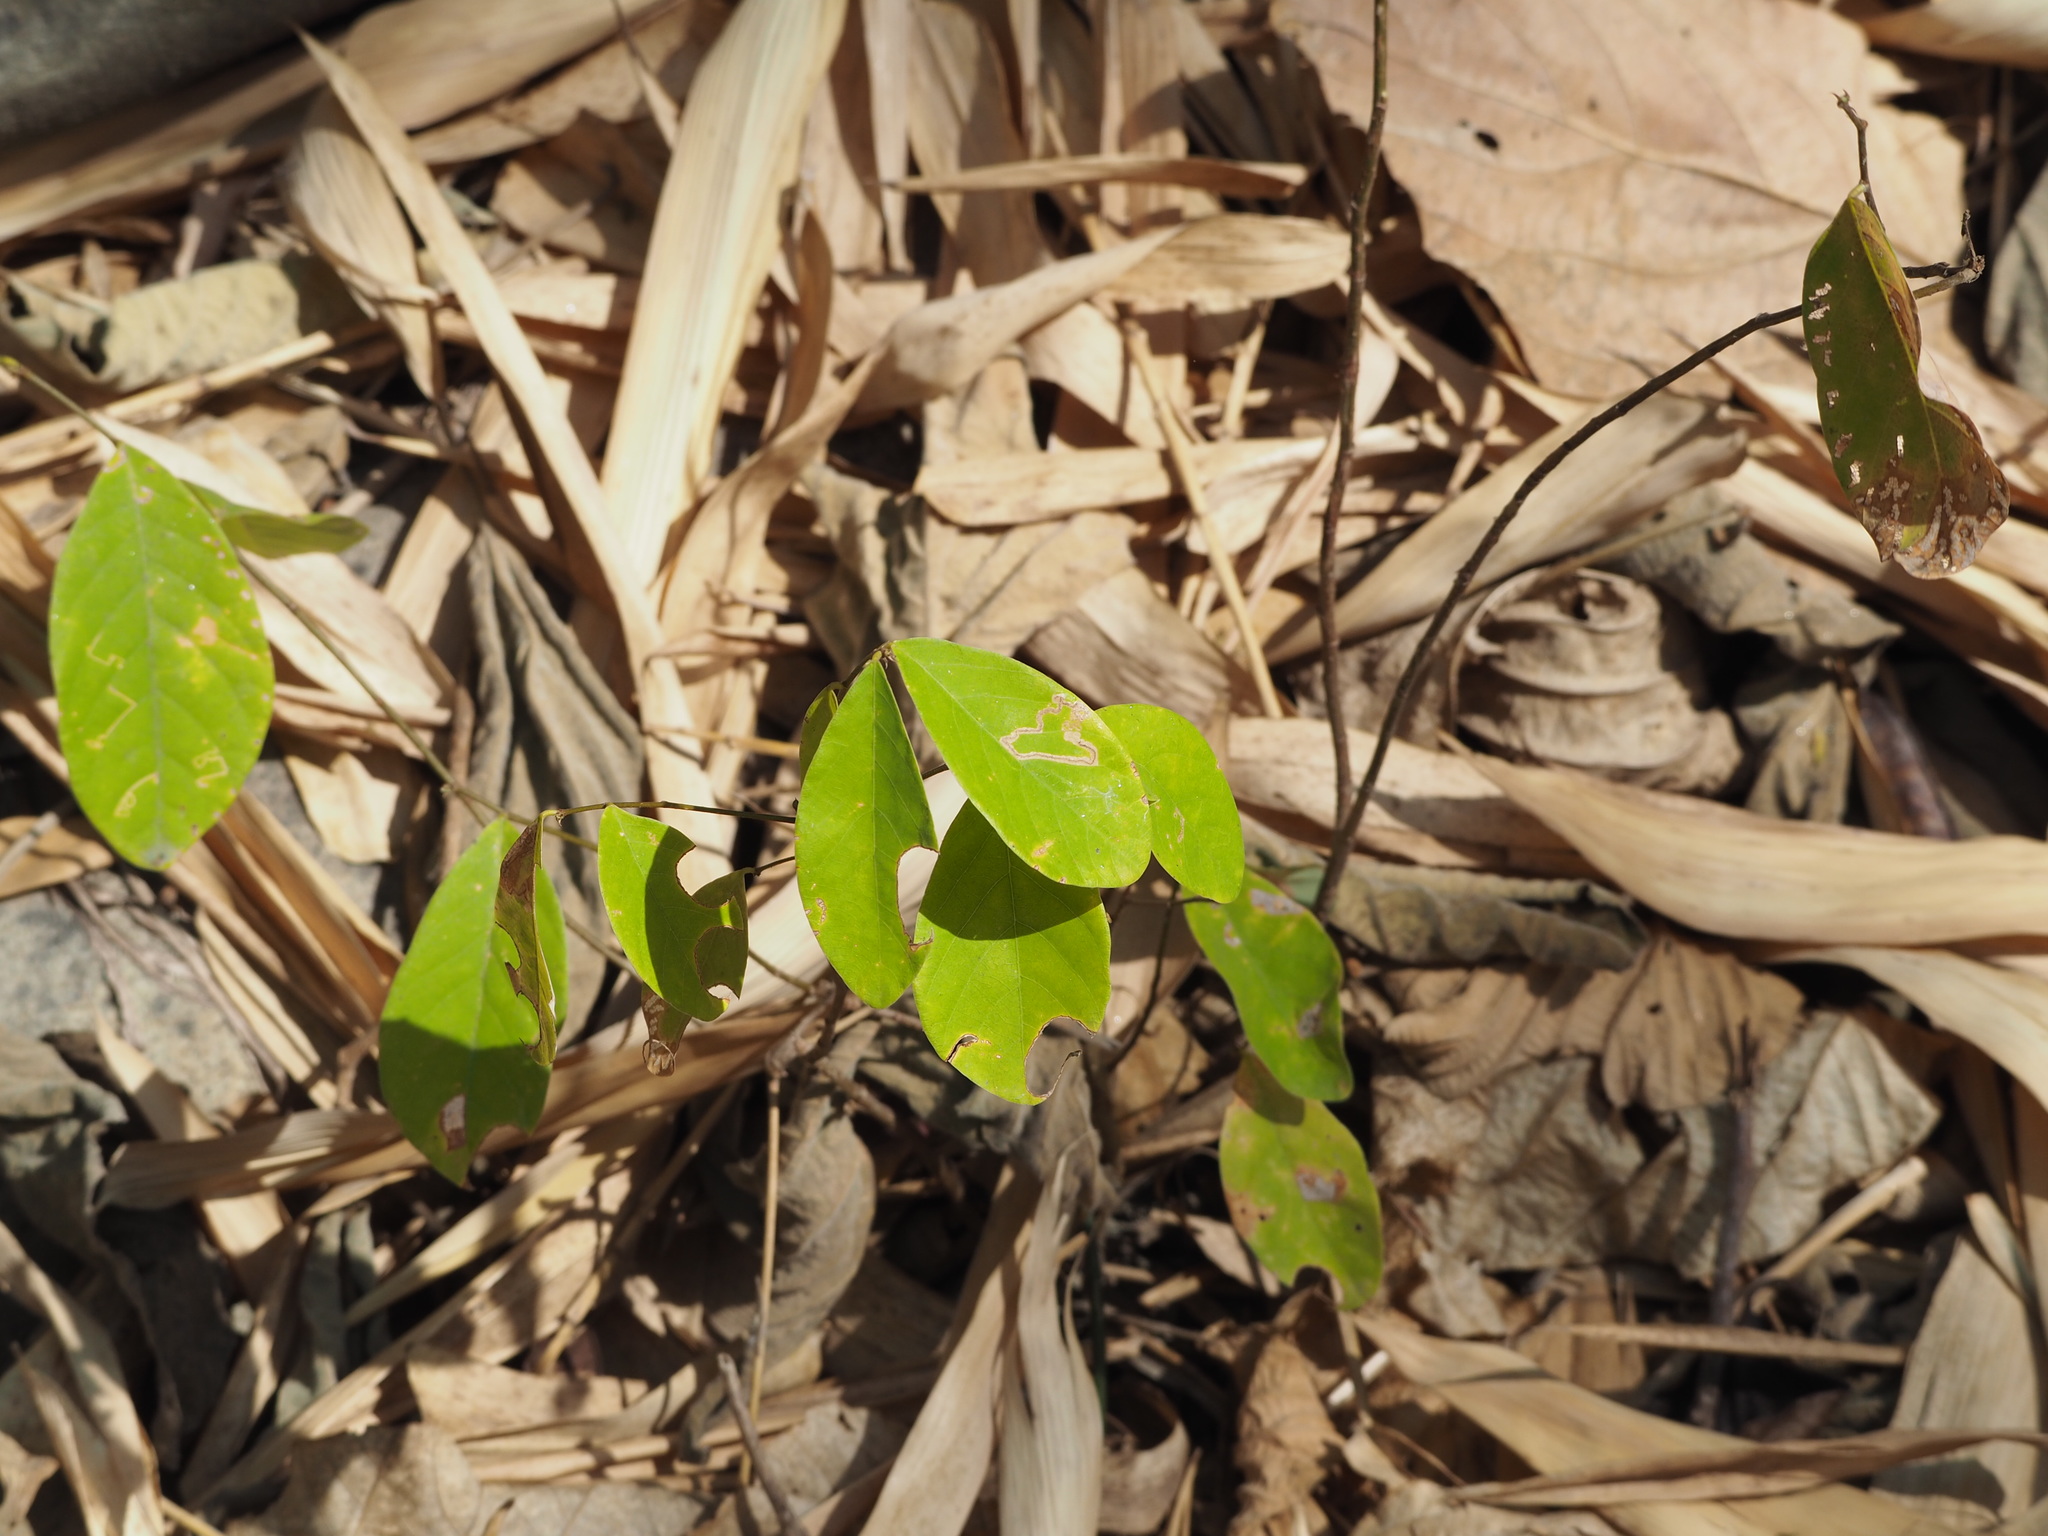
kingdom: Plantae
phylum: Tracheophyta
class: Magnoliopsida
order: Malpighiales
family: Phyllanthaceae
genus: Bridelia
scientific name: Bridelia tomentosa
